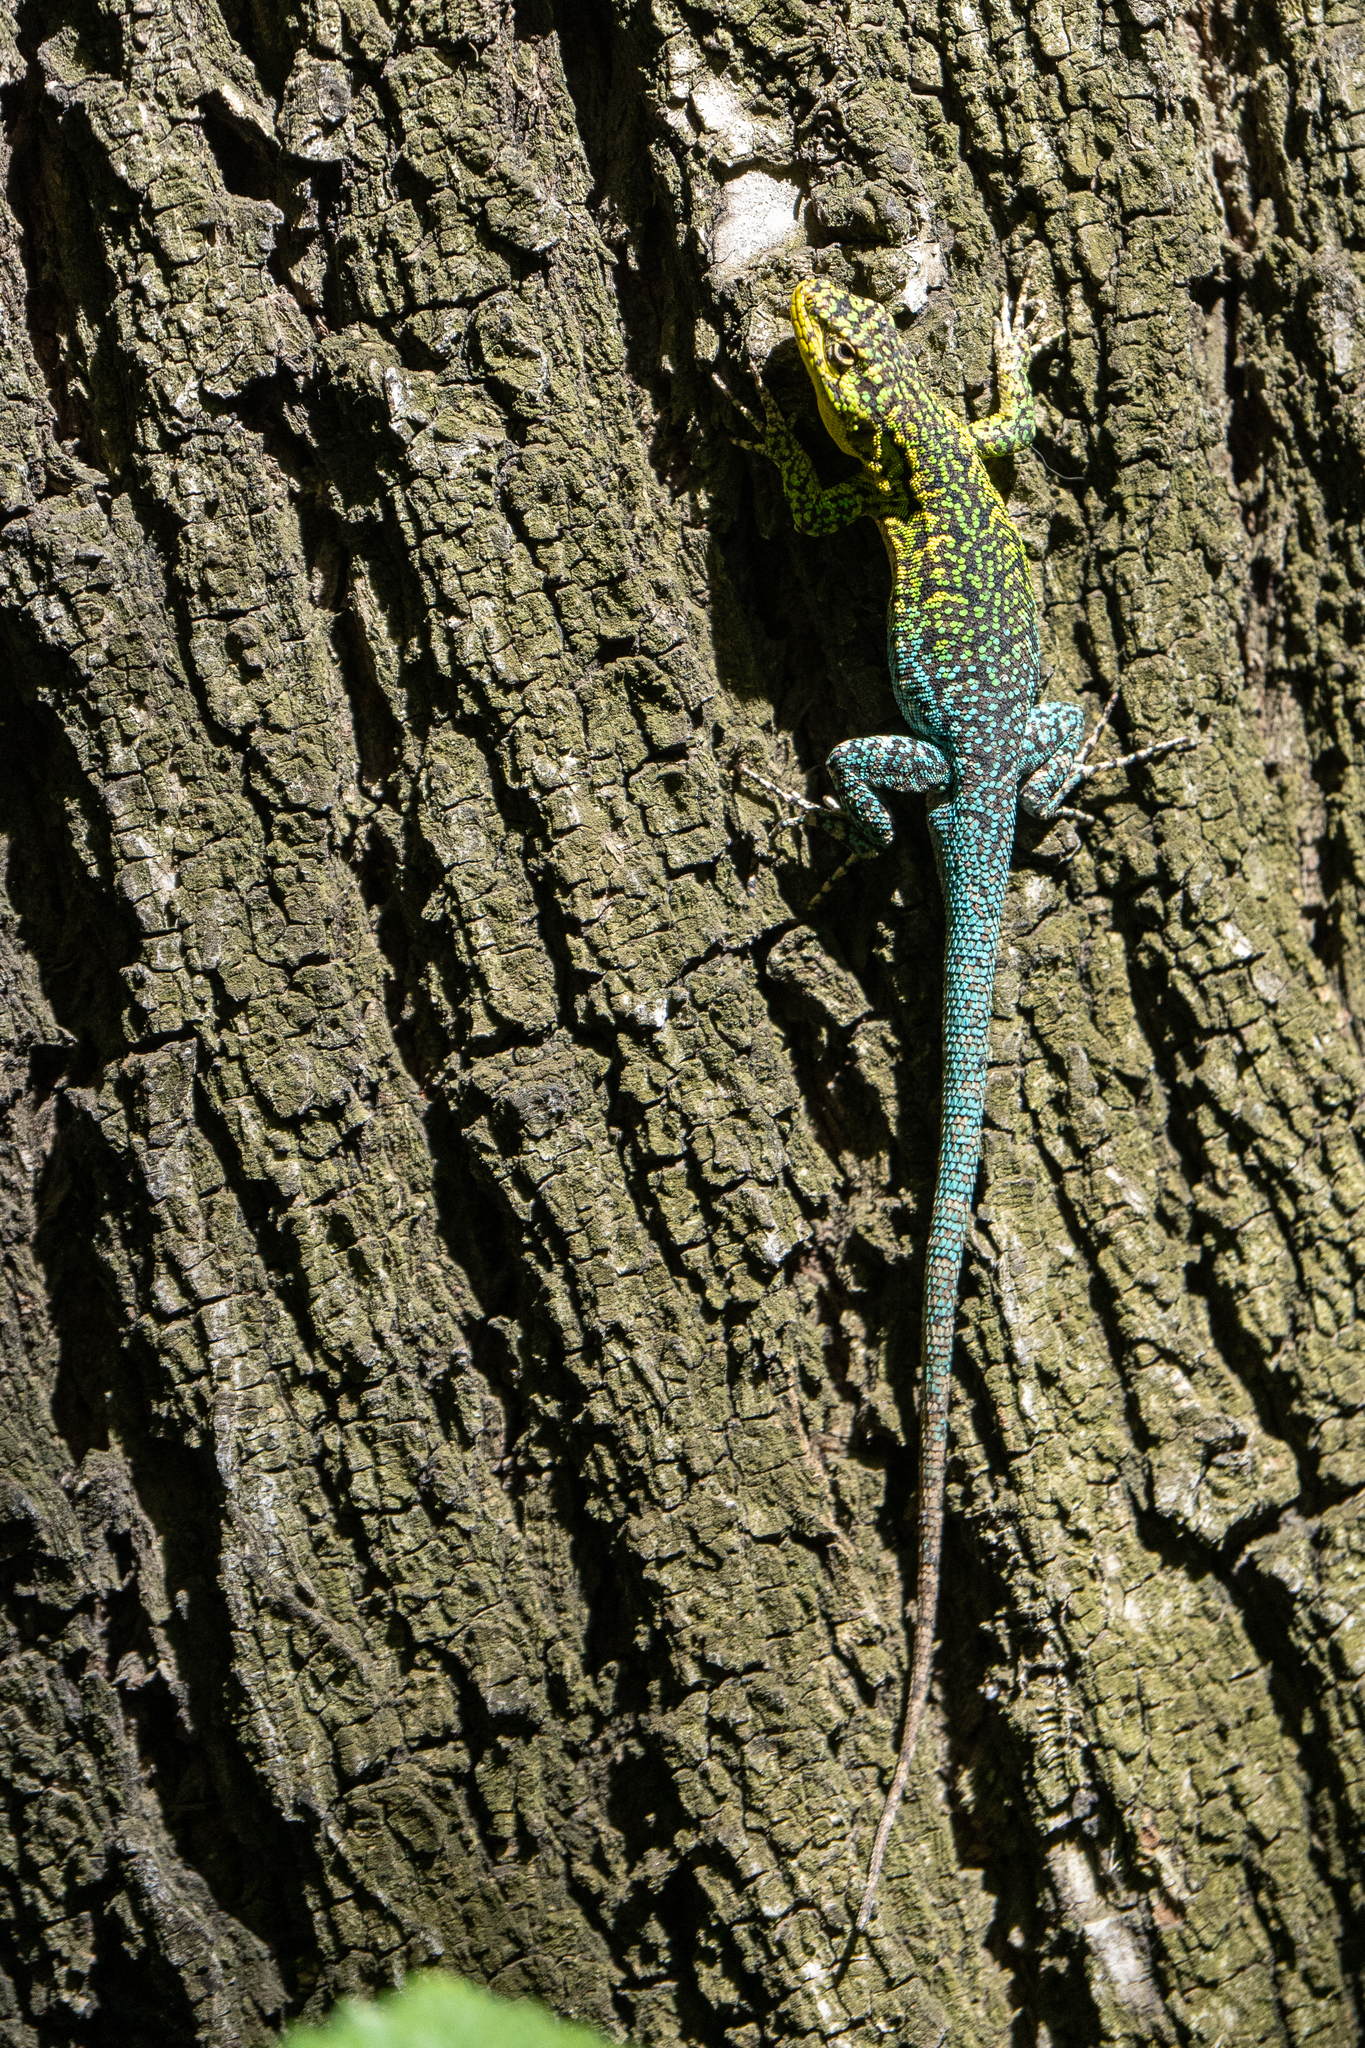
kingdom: Animalia
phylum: Chordata
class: Squamata
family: Liolaemidae
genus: Liolaemus
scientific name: Liolaemus tenuis
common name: Thin tree iguana
